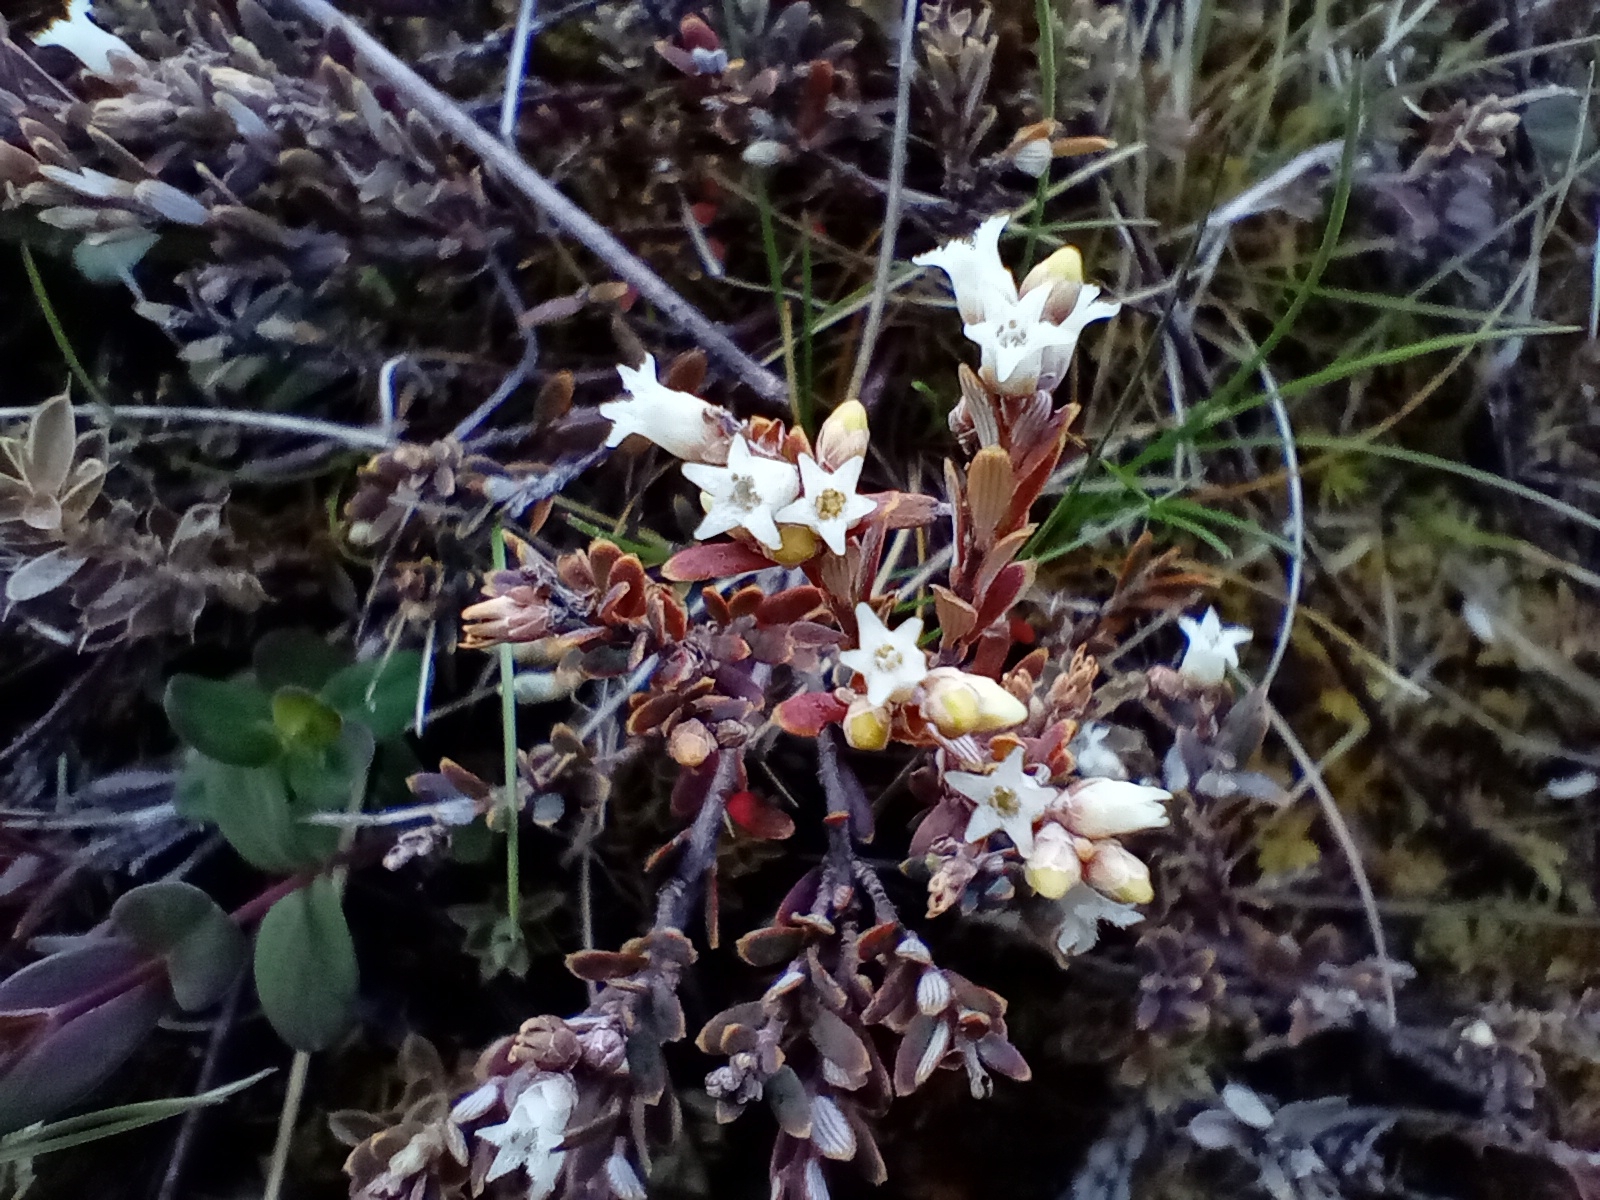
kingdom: Plantae
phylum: Tracheophyta
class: Magnoliopsida
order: Ericales
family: Ericaceae
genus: Acrothamnus
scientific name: Acrothamnus colensoi
